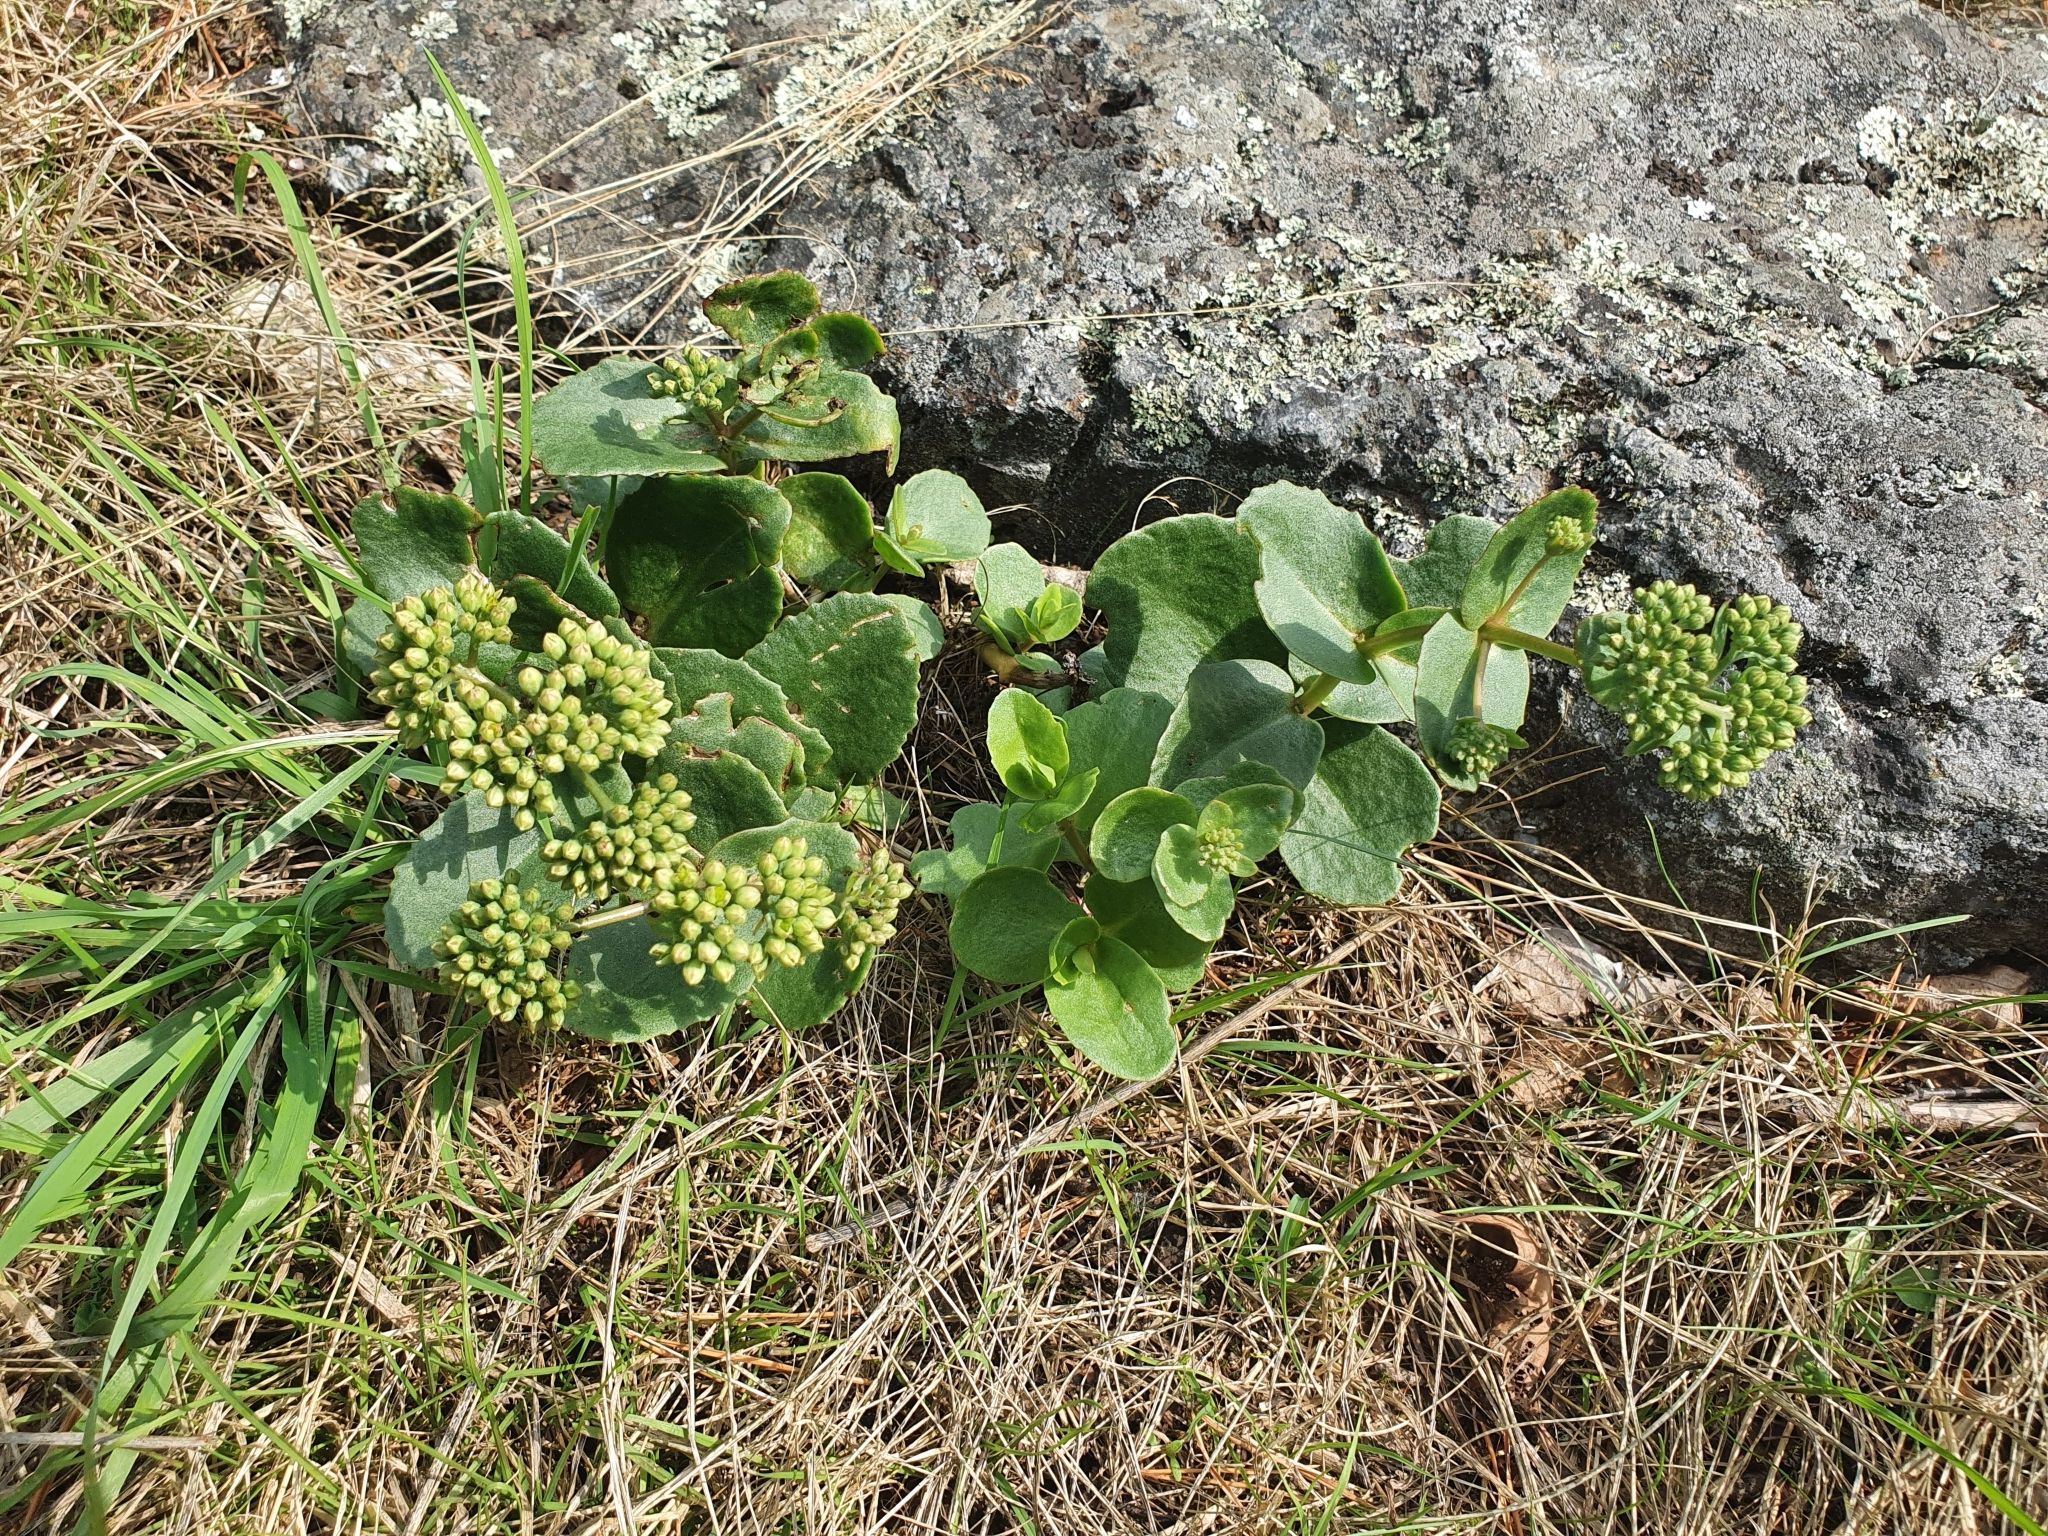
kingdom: Plantae
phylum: Tracheophyta
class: Magnoliopsida
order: Saxifragales
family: Crassulaceae
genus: Hylotelephium
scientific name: Hylotelephium maximum
